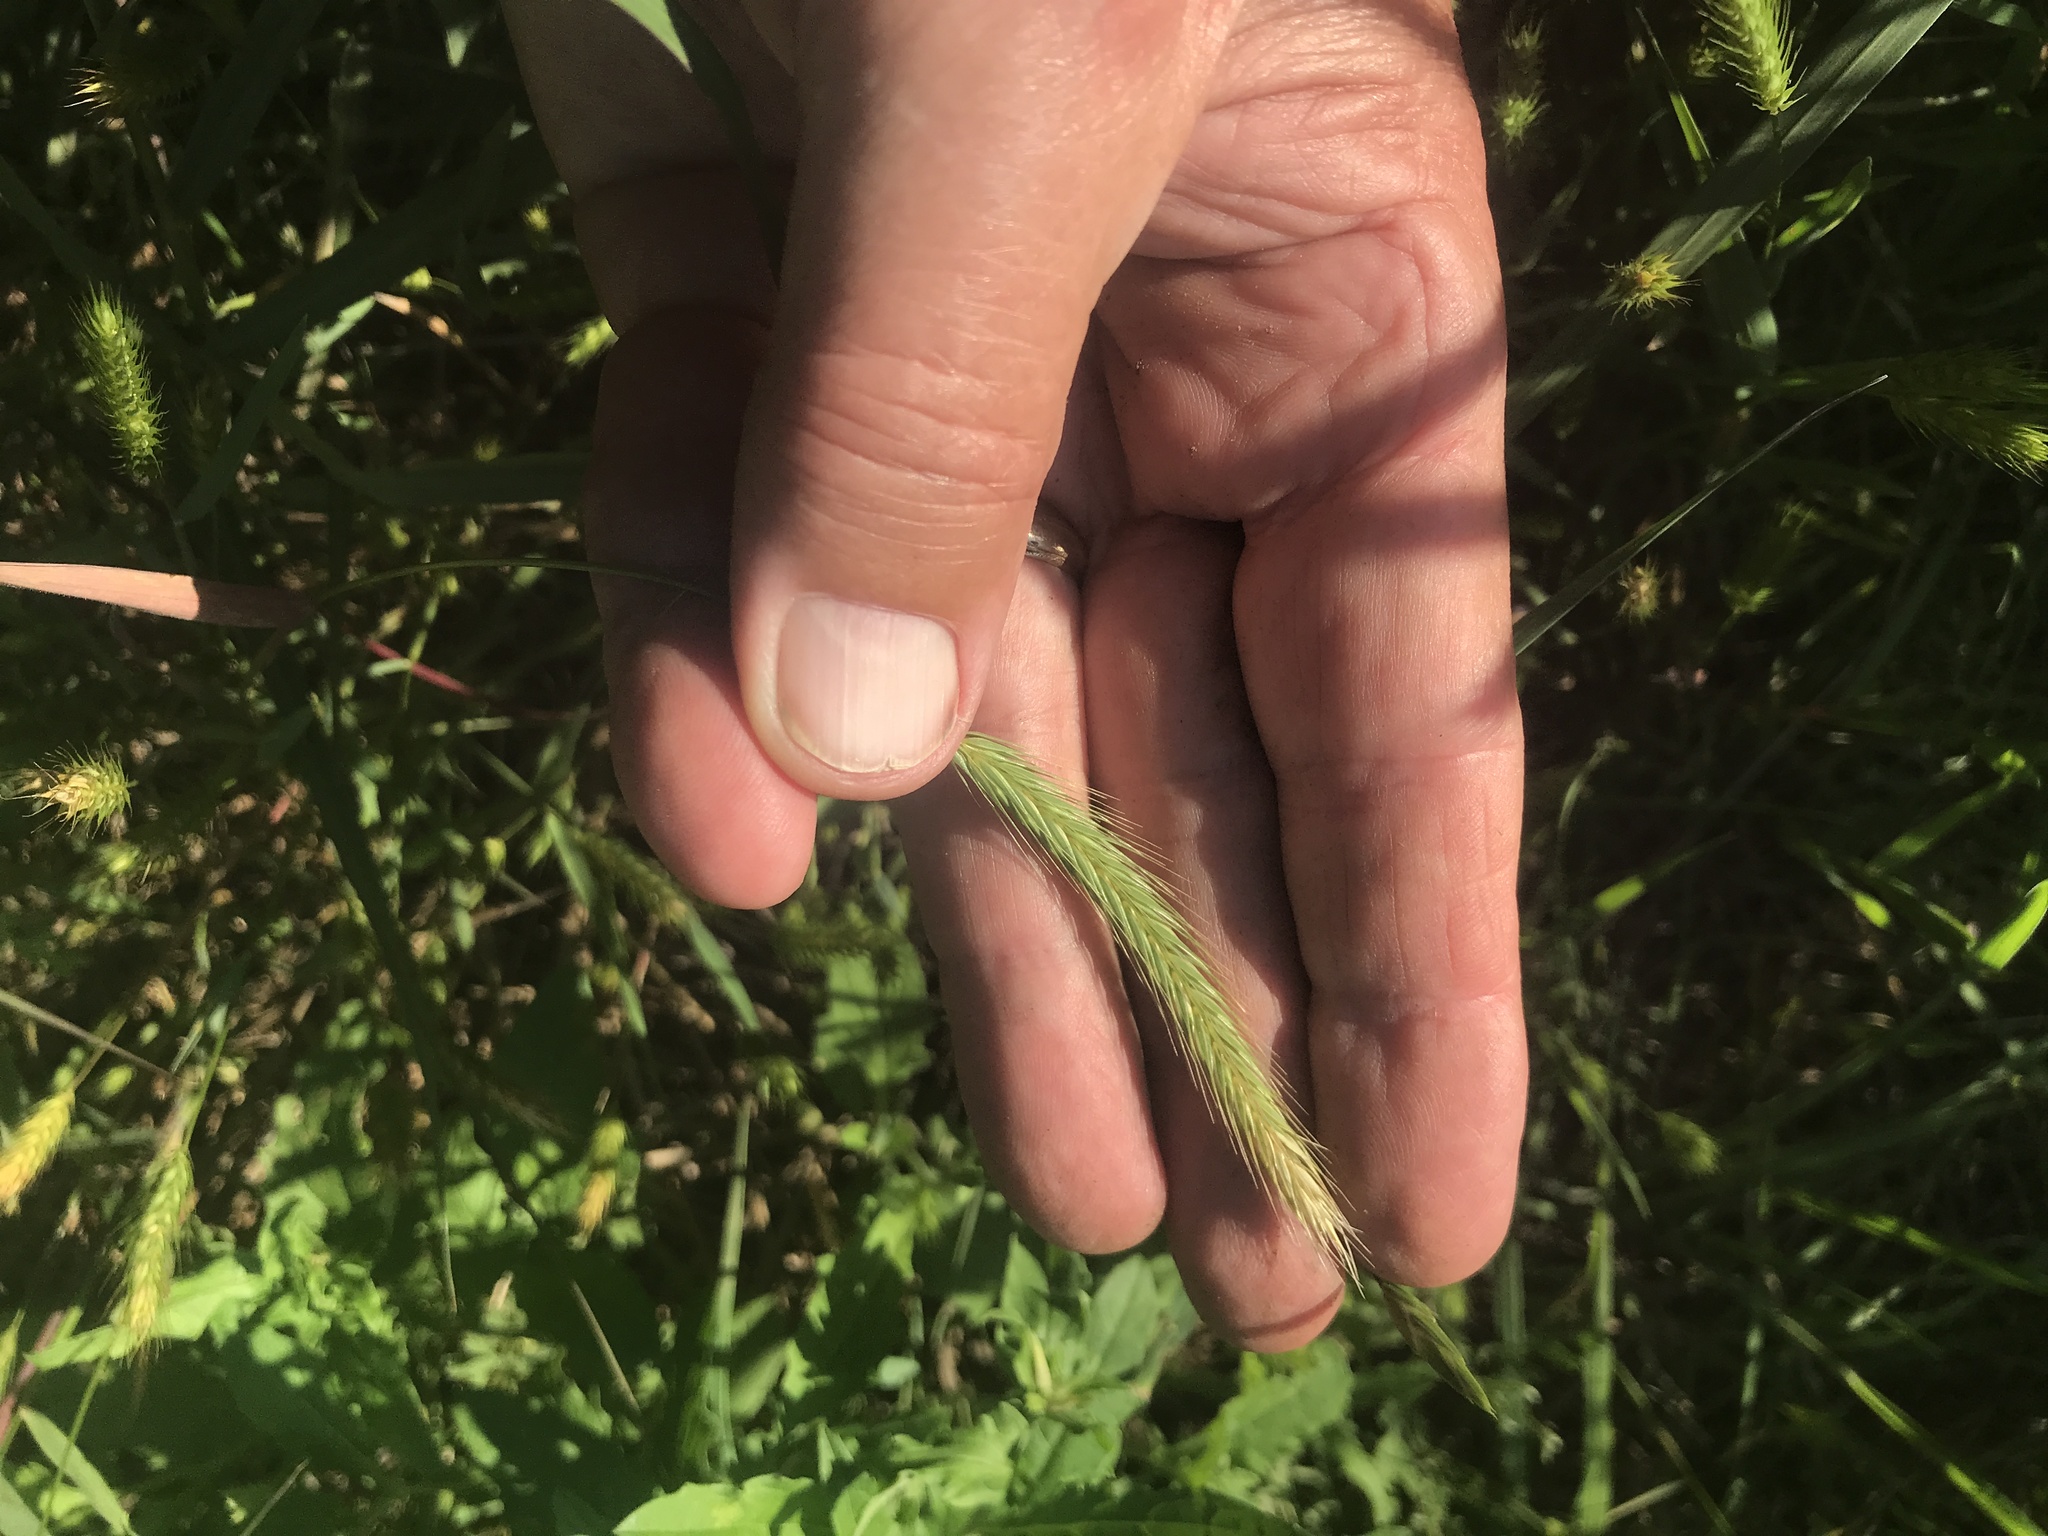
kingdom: Plantae
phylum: Tracheophyta
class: Liliopsida
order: Poales
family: Poaceae
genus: Hordeum
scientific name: Hordeum pusillum
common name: Little barley
